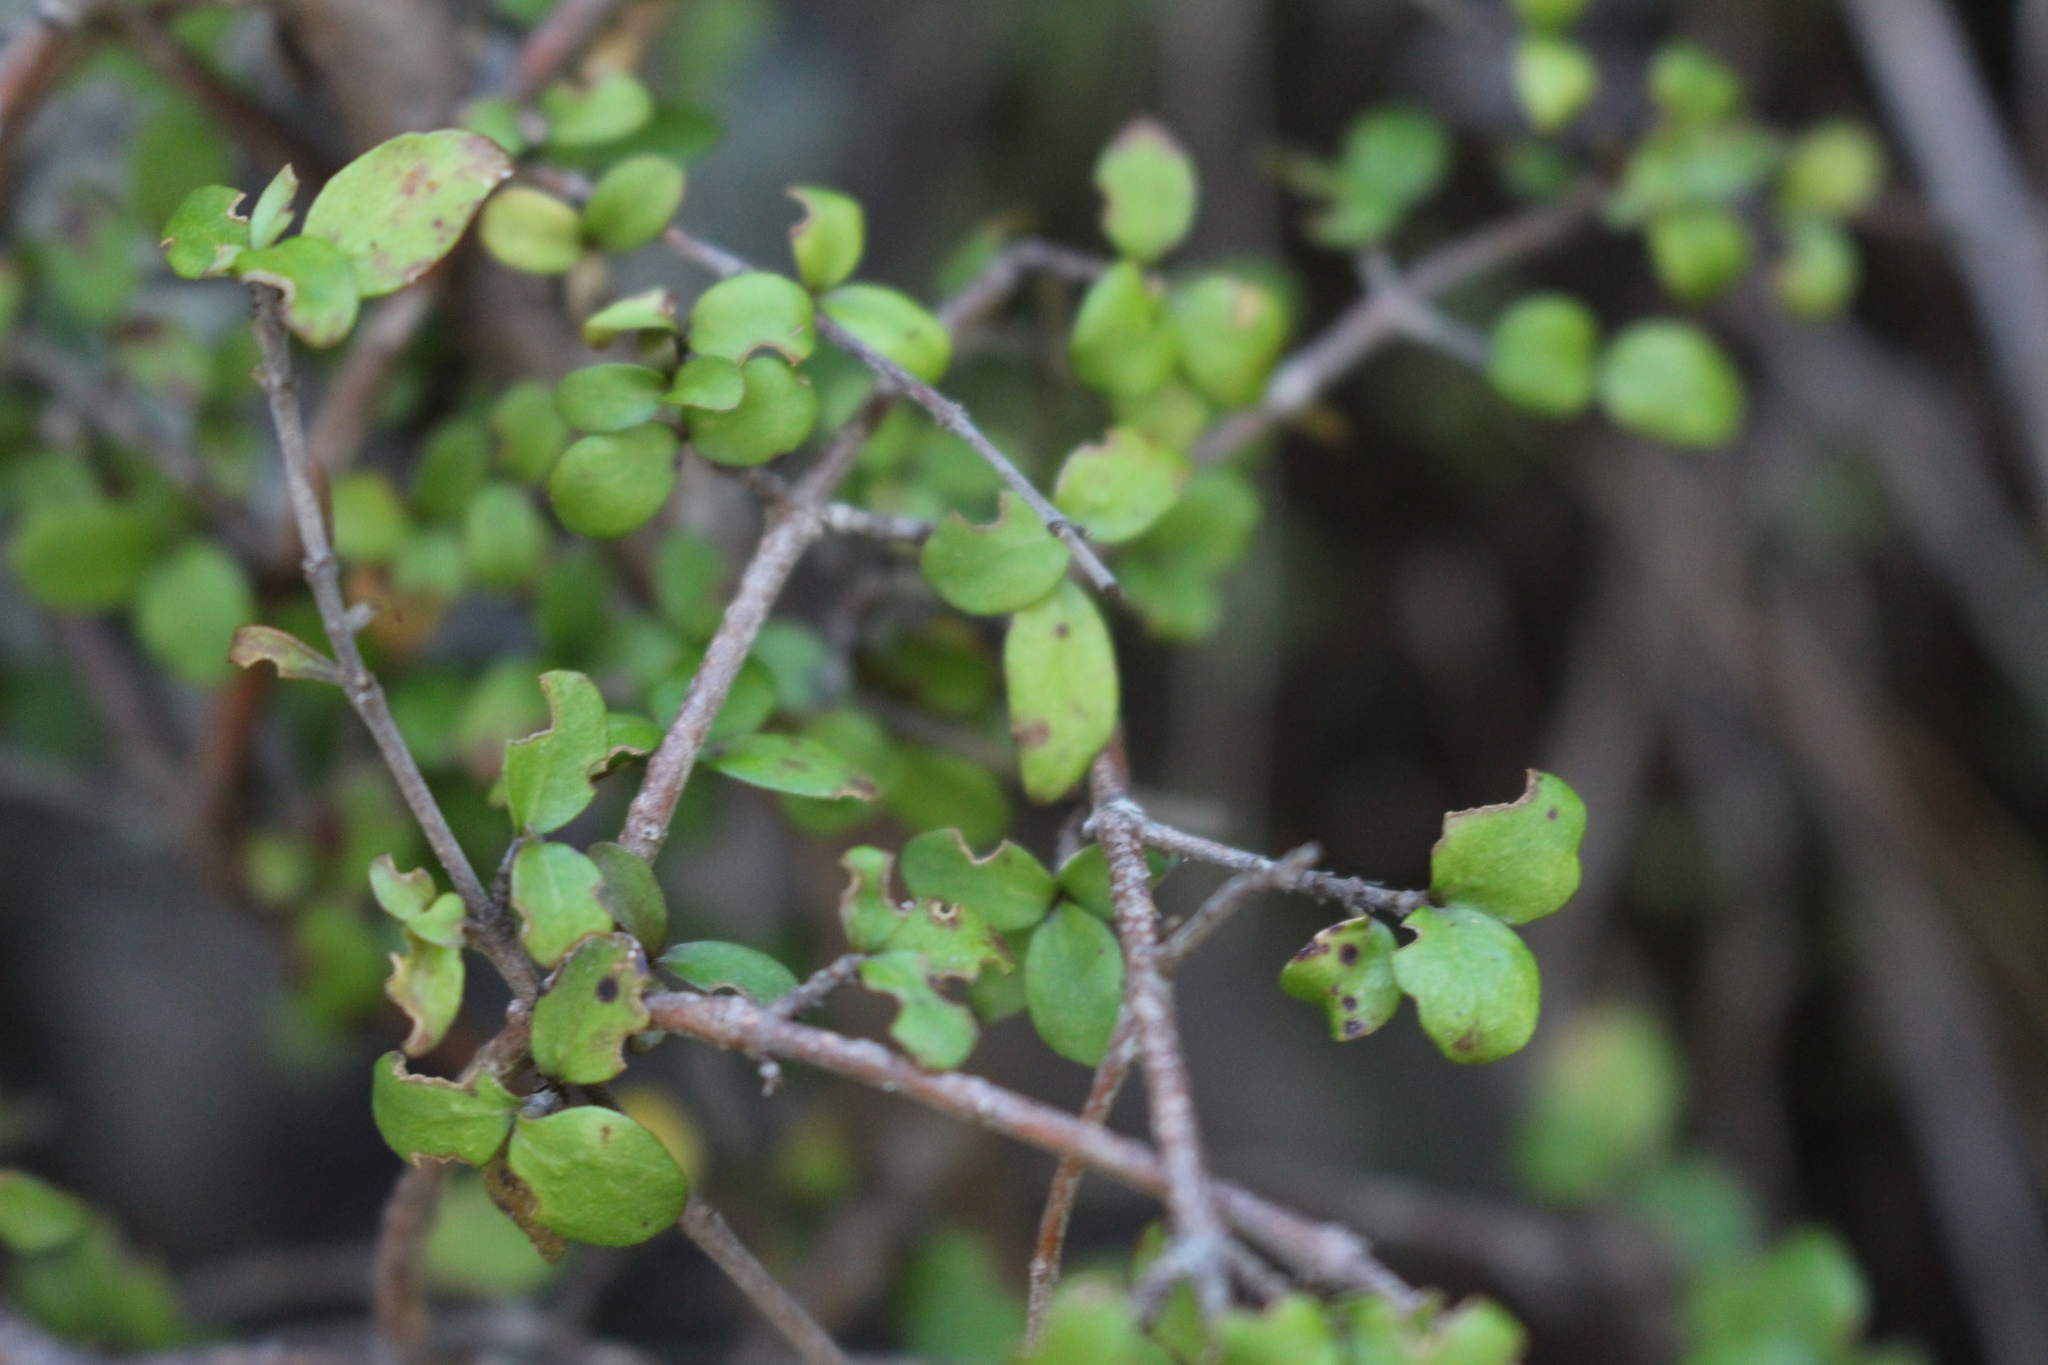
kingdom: Plantae
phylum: Tracheophyta
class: Magnoliopsida
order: Gentianales
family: Rubiaceae
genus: Coprosma
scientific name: Coprosma rhamnoides
